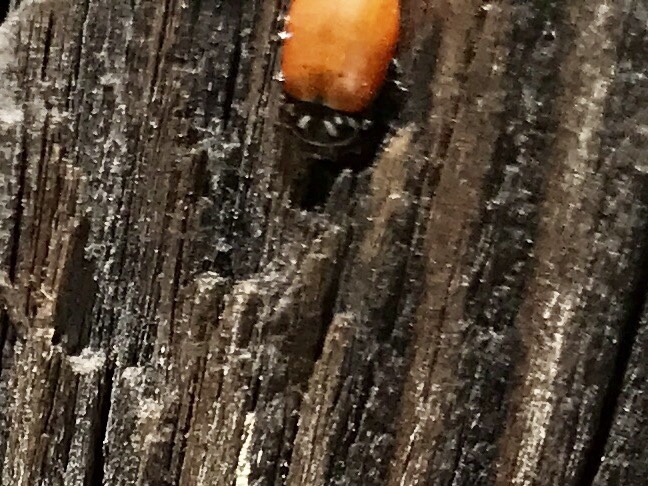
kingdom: Animalia
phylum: Arthropoda
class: Insecta
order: Coleoptera
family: Coccinellidae
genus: Hippodamia
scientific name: Hippodamia convergens
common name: Convergent lady beetle
